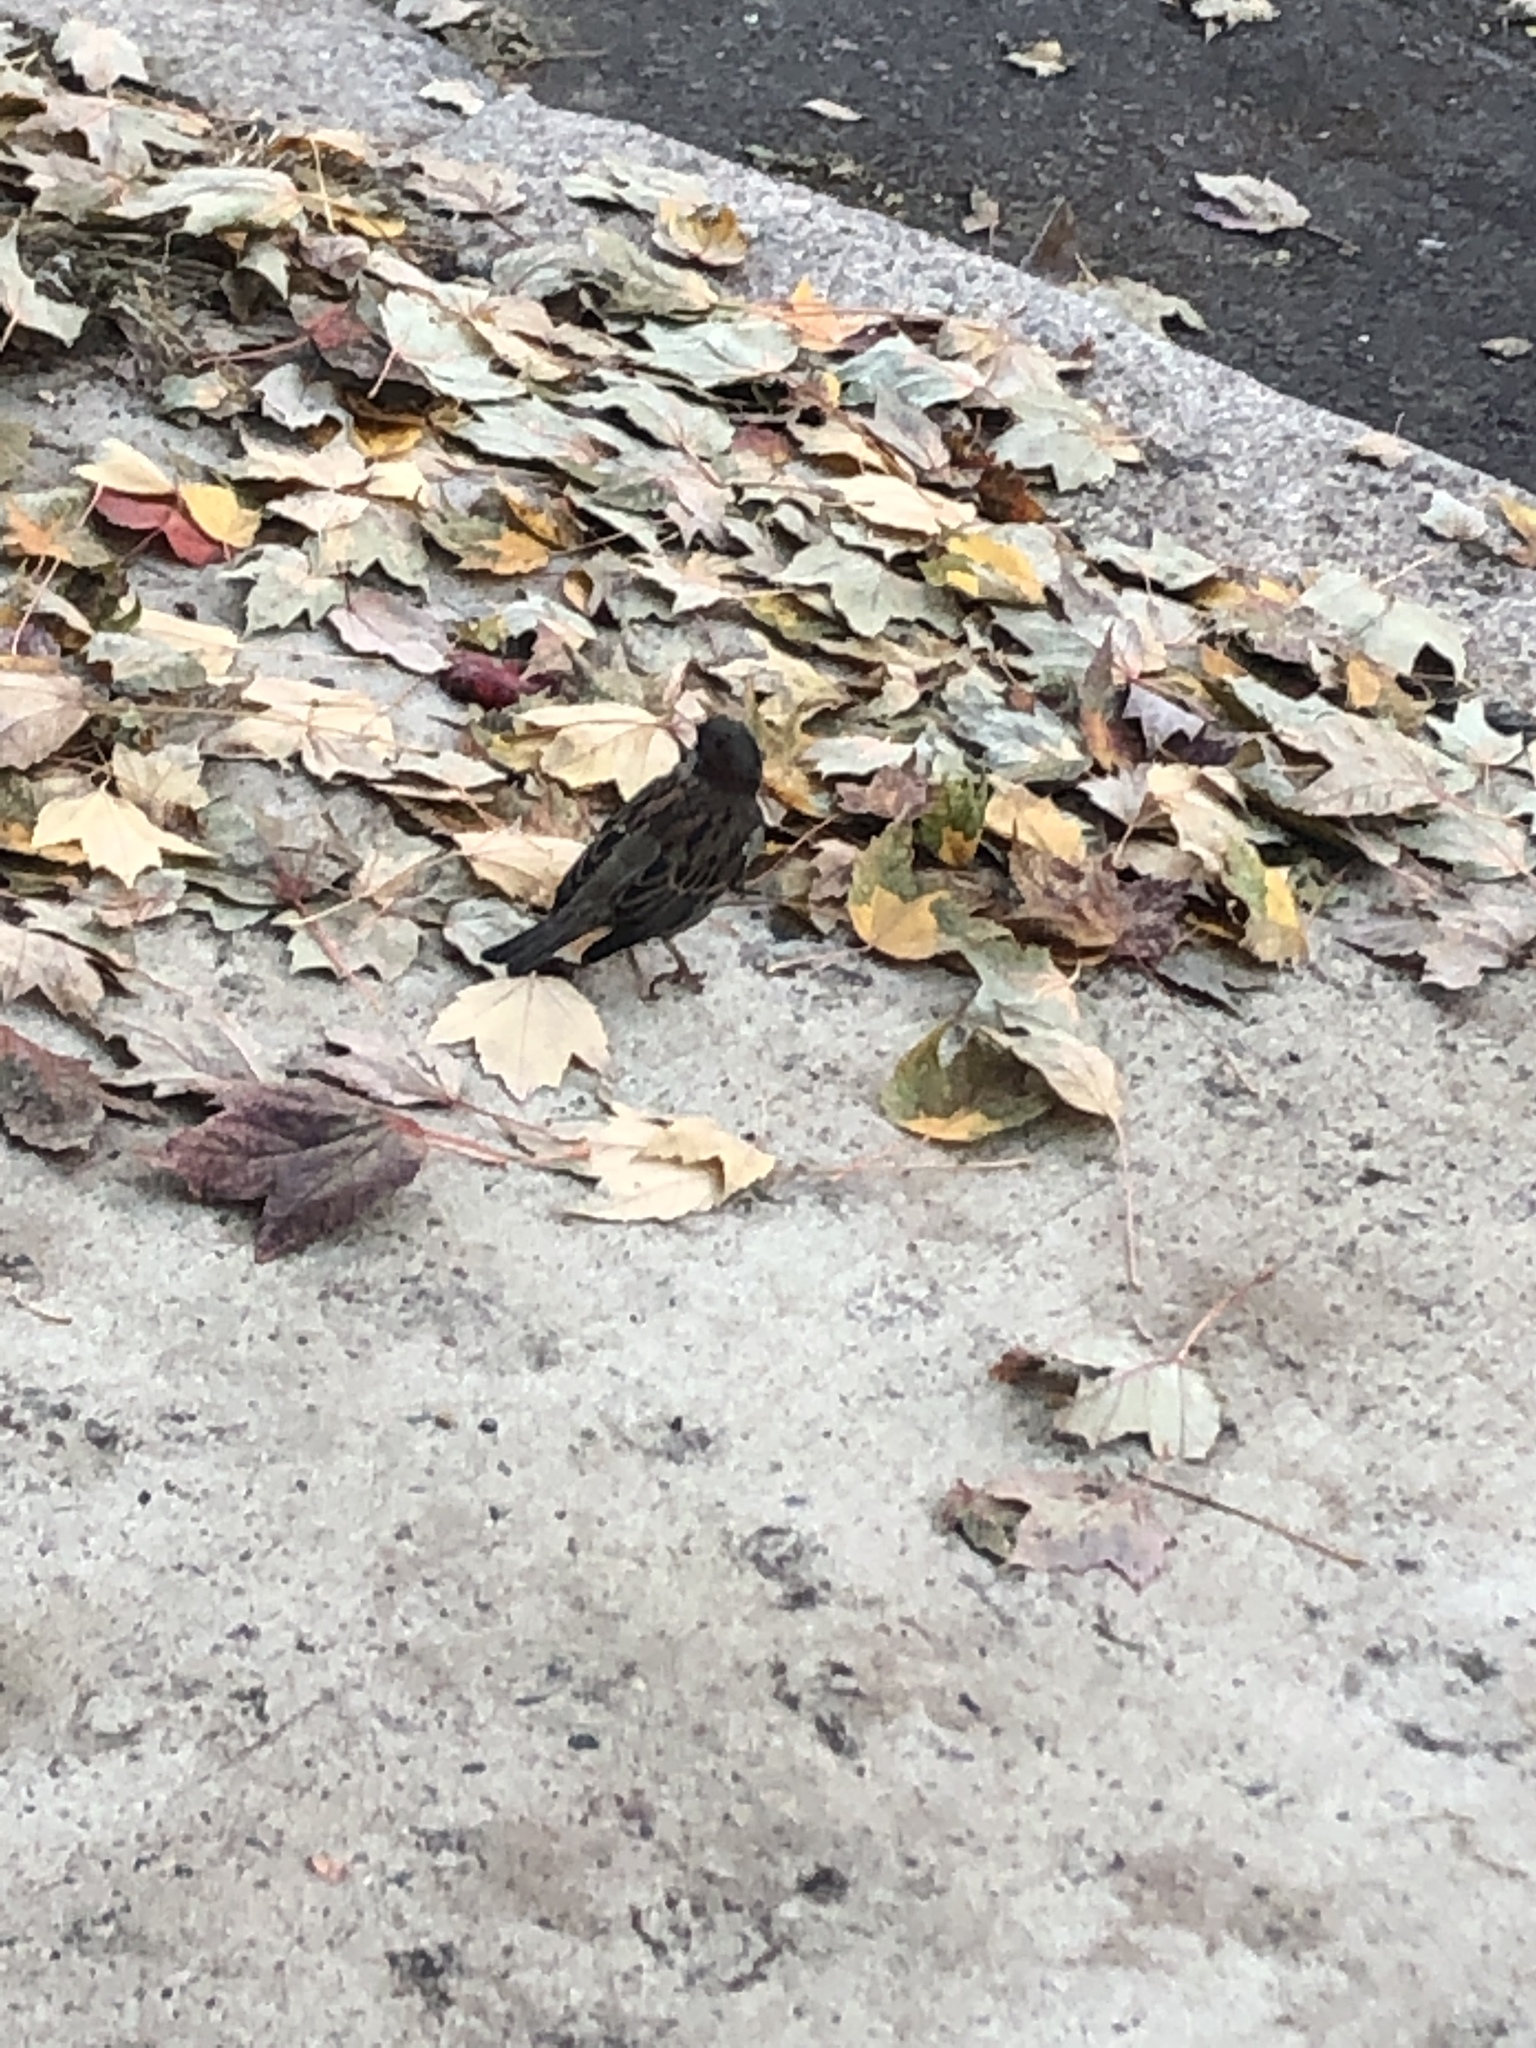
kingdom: Animalia
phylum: Chordata
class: Aves
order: Passeriformes
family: Passeridae
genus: Passer
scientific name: Passer domesticus
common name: House sparrow
